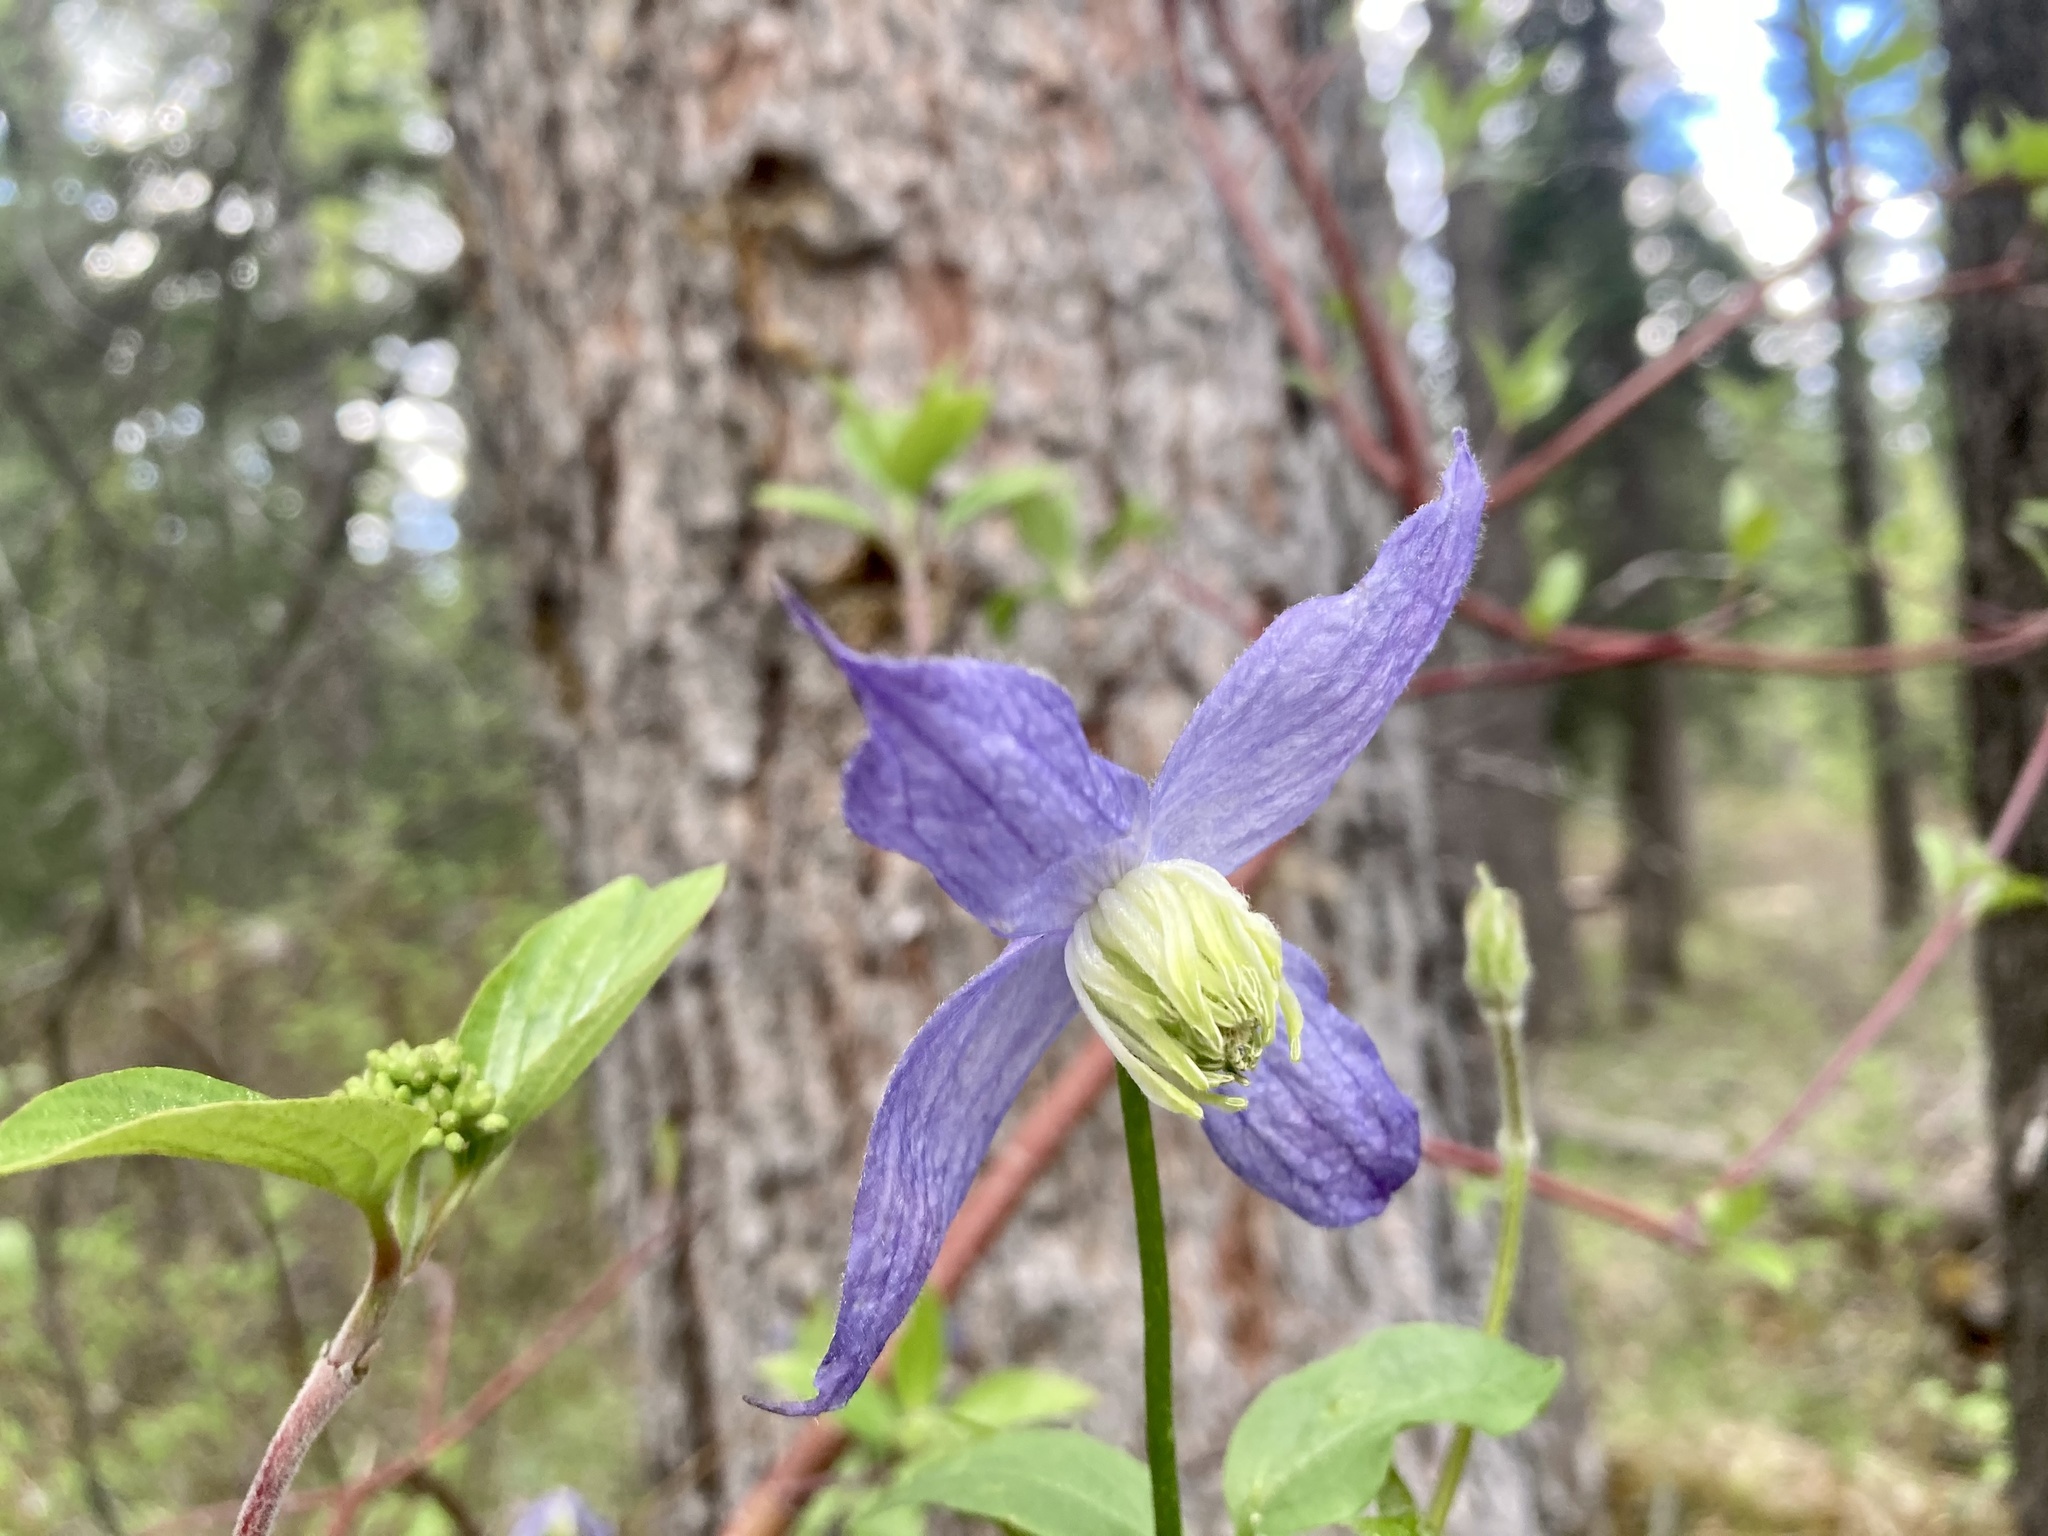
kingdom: Plantae
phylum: Tracheophyta
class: Magnoliopsida
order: Ranunculales
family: Ranunculaceae
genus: Clematis
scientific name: Clematis occidentalis
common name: Purple clematis
